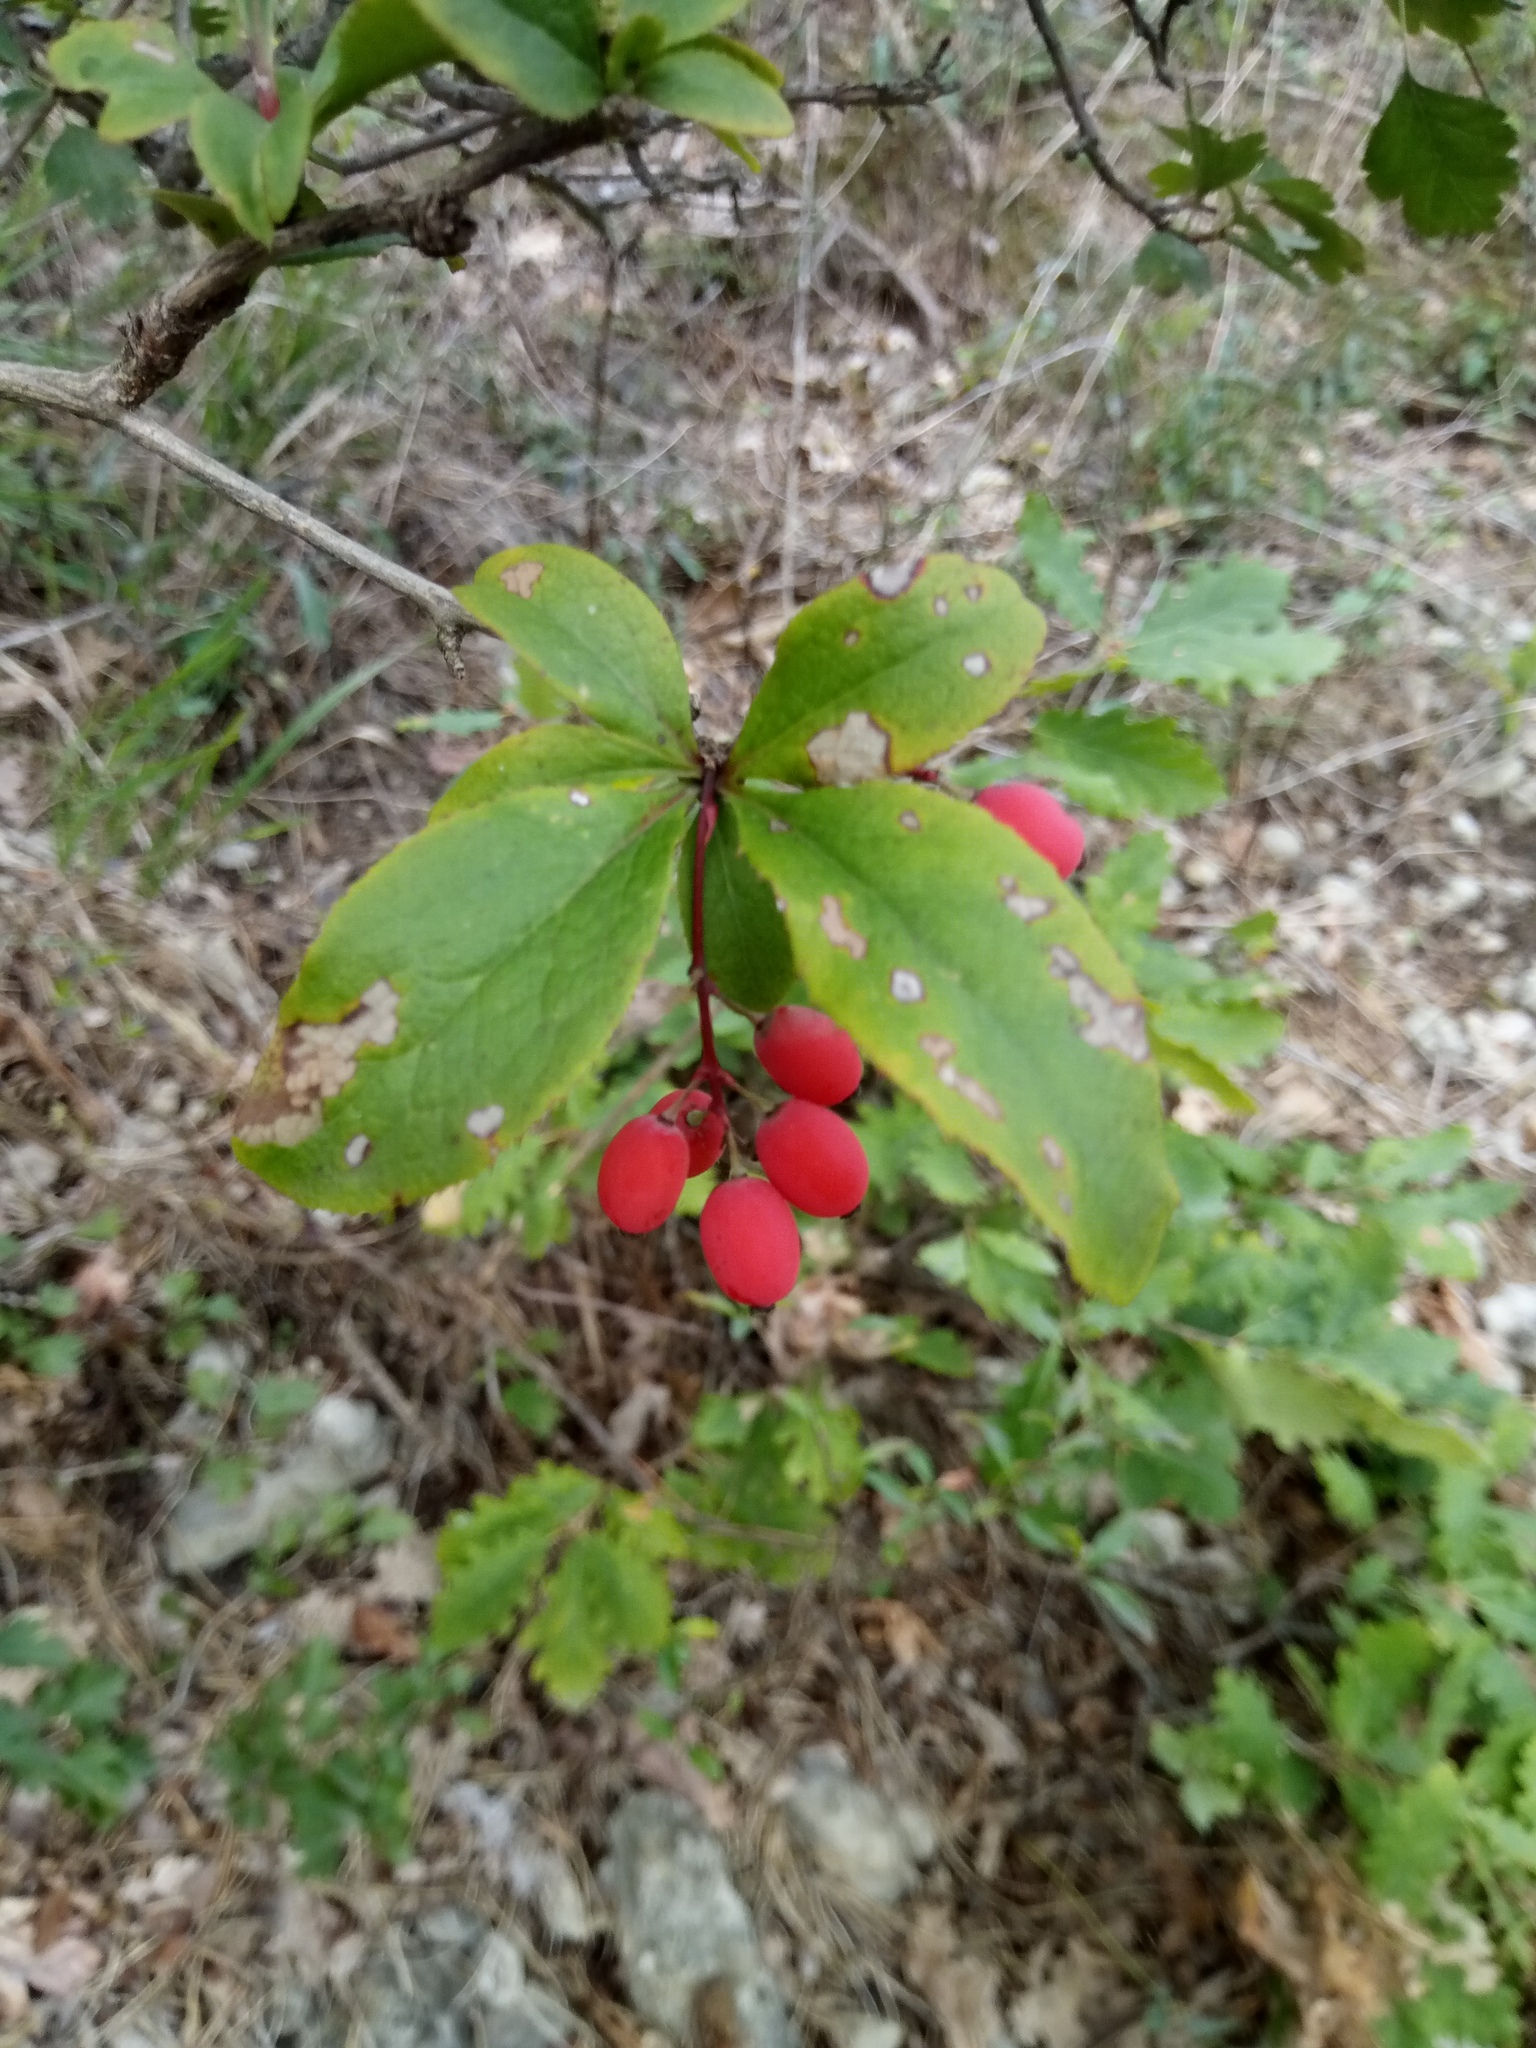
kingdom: Plantae
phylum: Tracheophyta
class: Magnoliopsida
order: Ranunculales
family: Berberidaceae
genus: Berberis
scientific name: Berberis vulgaris
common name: Barberry
